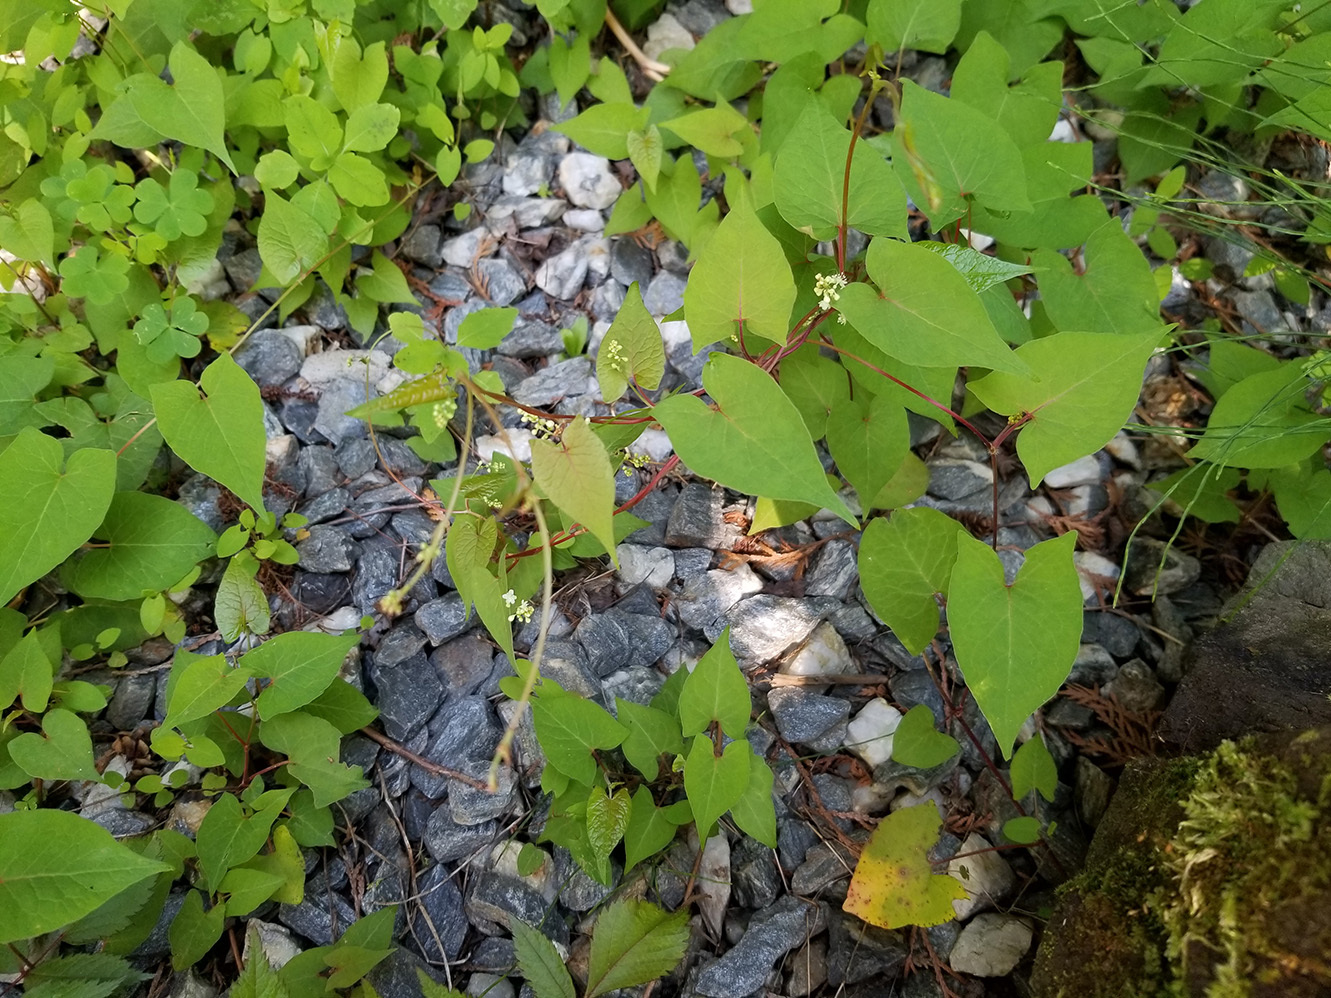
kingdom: Plantae
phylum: Tracheophyta
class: Magnoliopsida
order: Caryophyllales
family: Polygonaceae
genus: Parogonum
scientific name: Parogonum ciliinode
